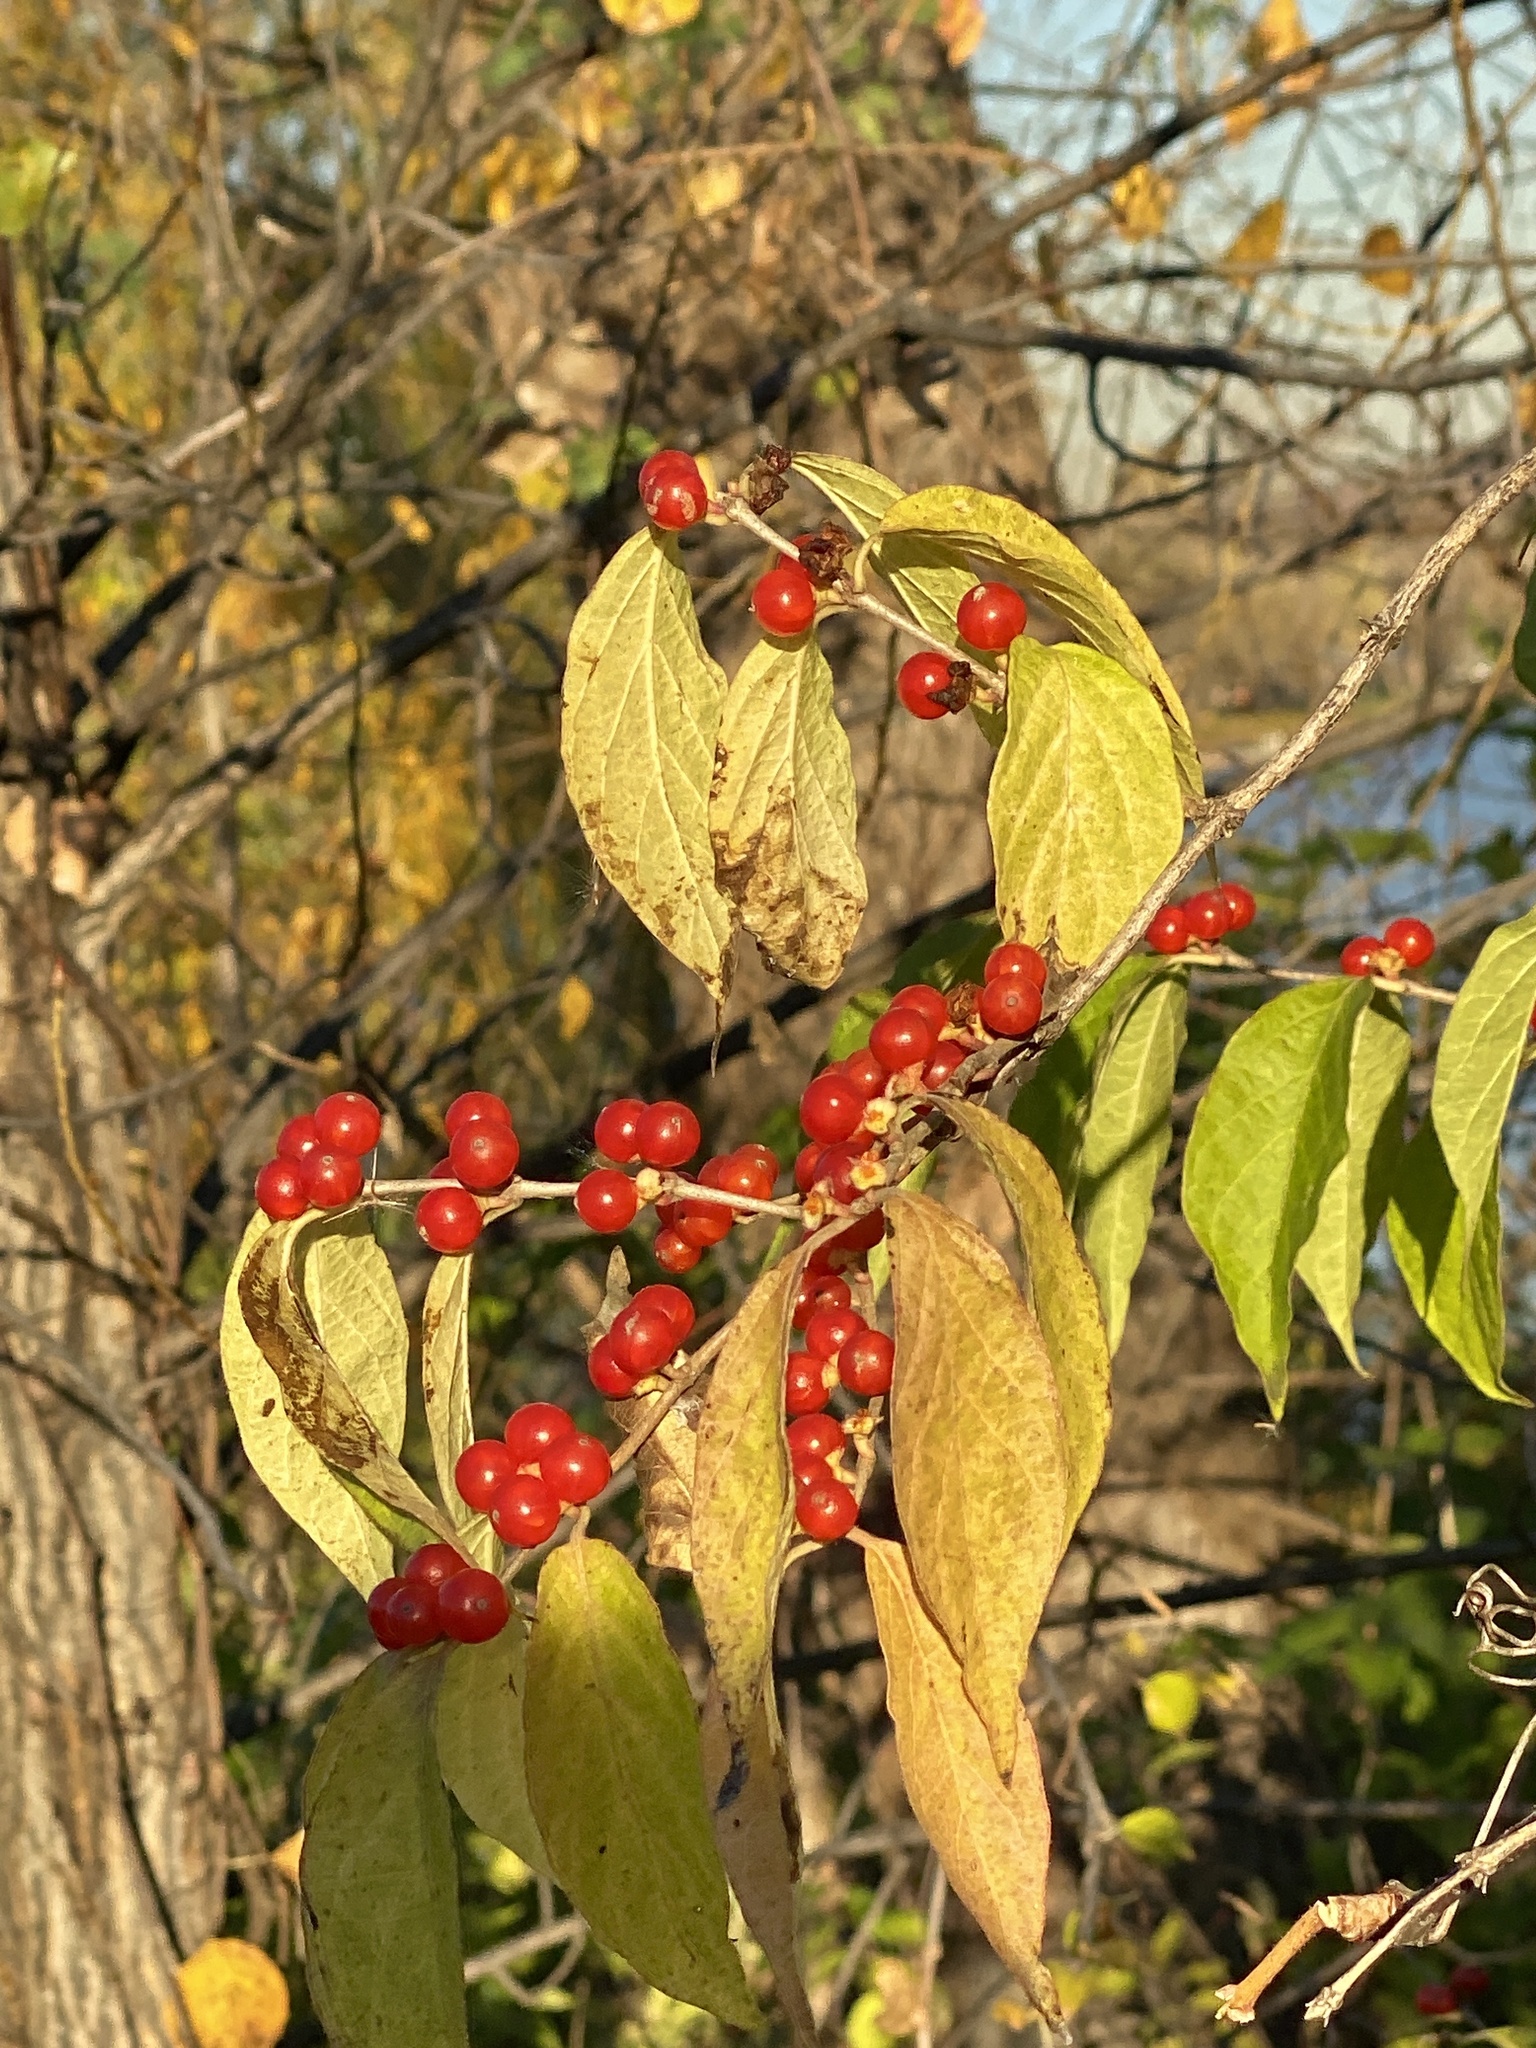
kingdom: Plantae
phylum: Tracheophyta
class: Magnoliopsida
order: Dipsacales
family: Caprifoliaceae
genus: Lonicera
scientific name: Lonicera maackii
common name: Amur honeysuckle
